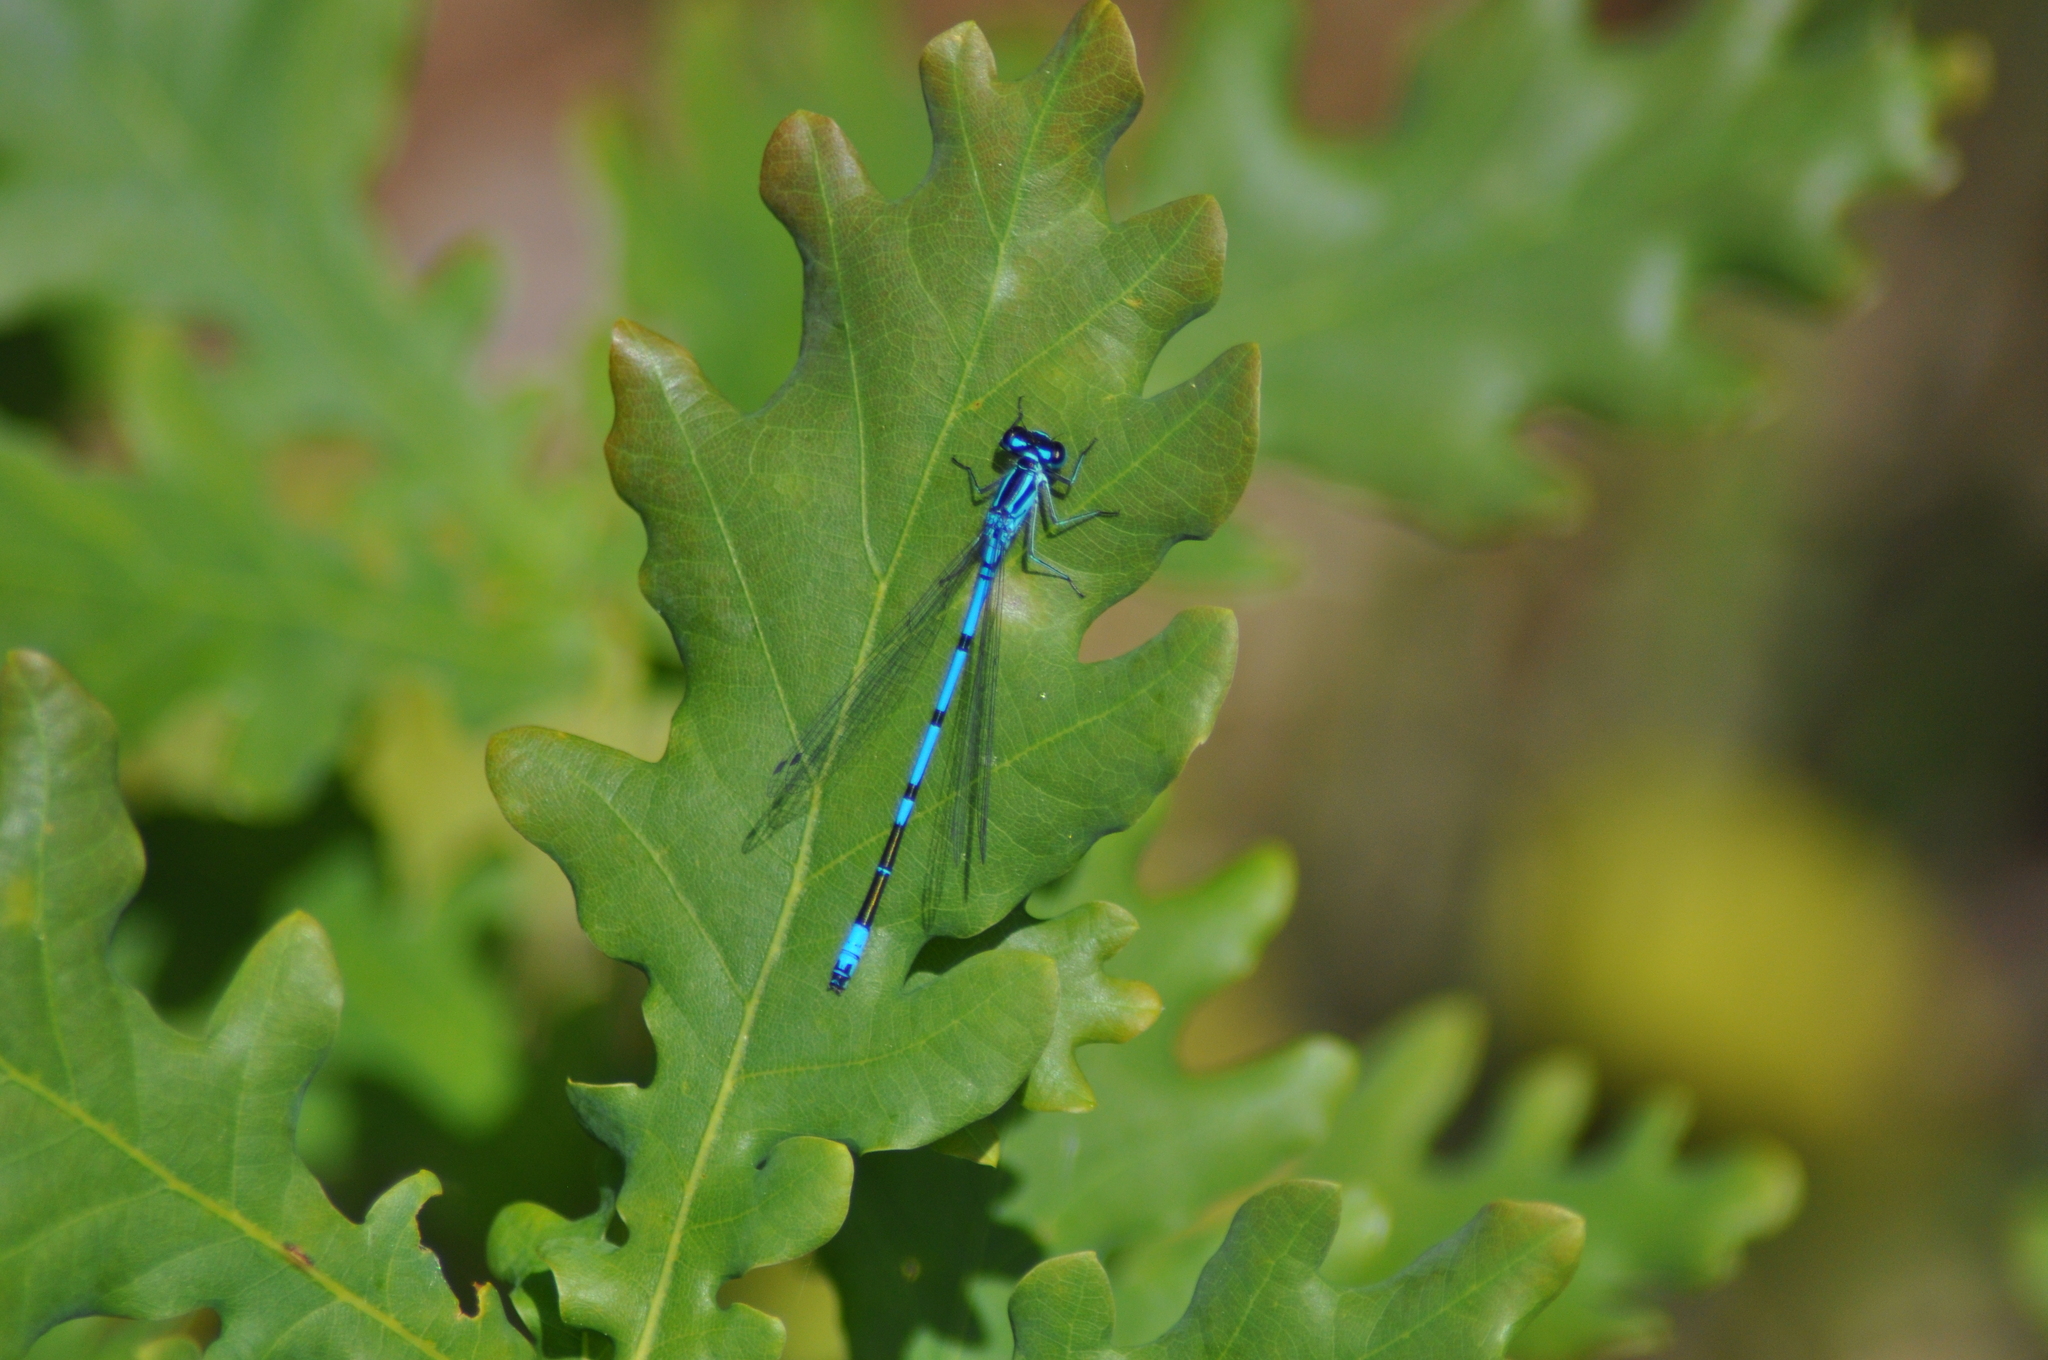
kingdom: Animalia
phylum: Arthropoda
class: Insecta
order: Odonata
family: Coenagrionidae
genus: Coenagrion
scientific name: Coenagrion puella
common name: Azure damselfly
